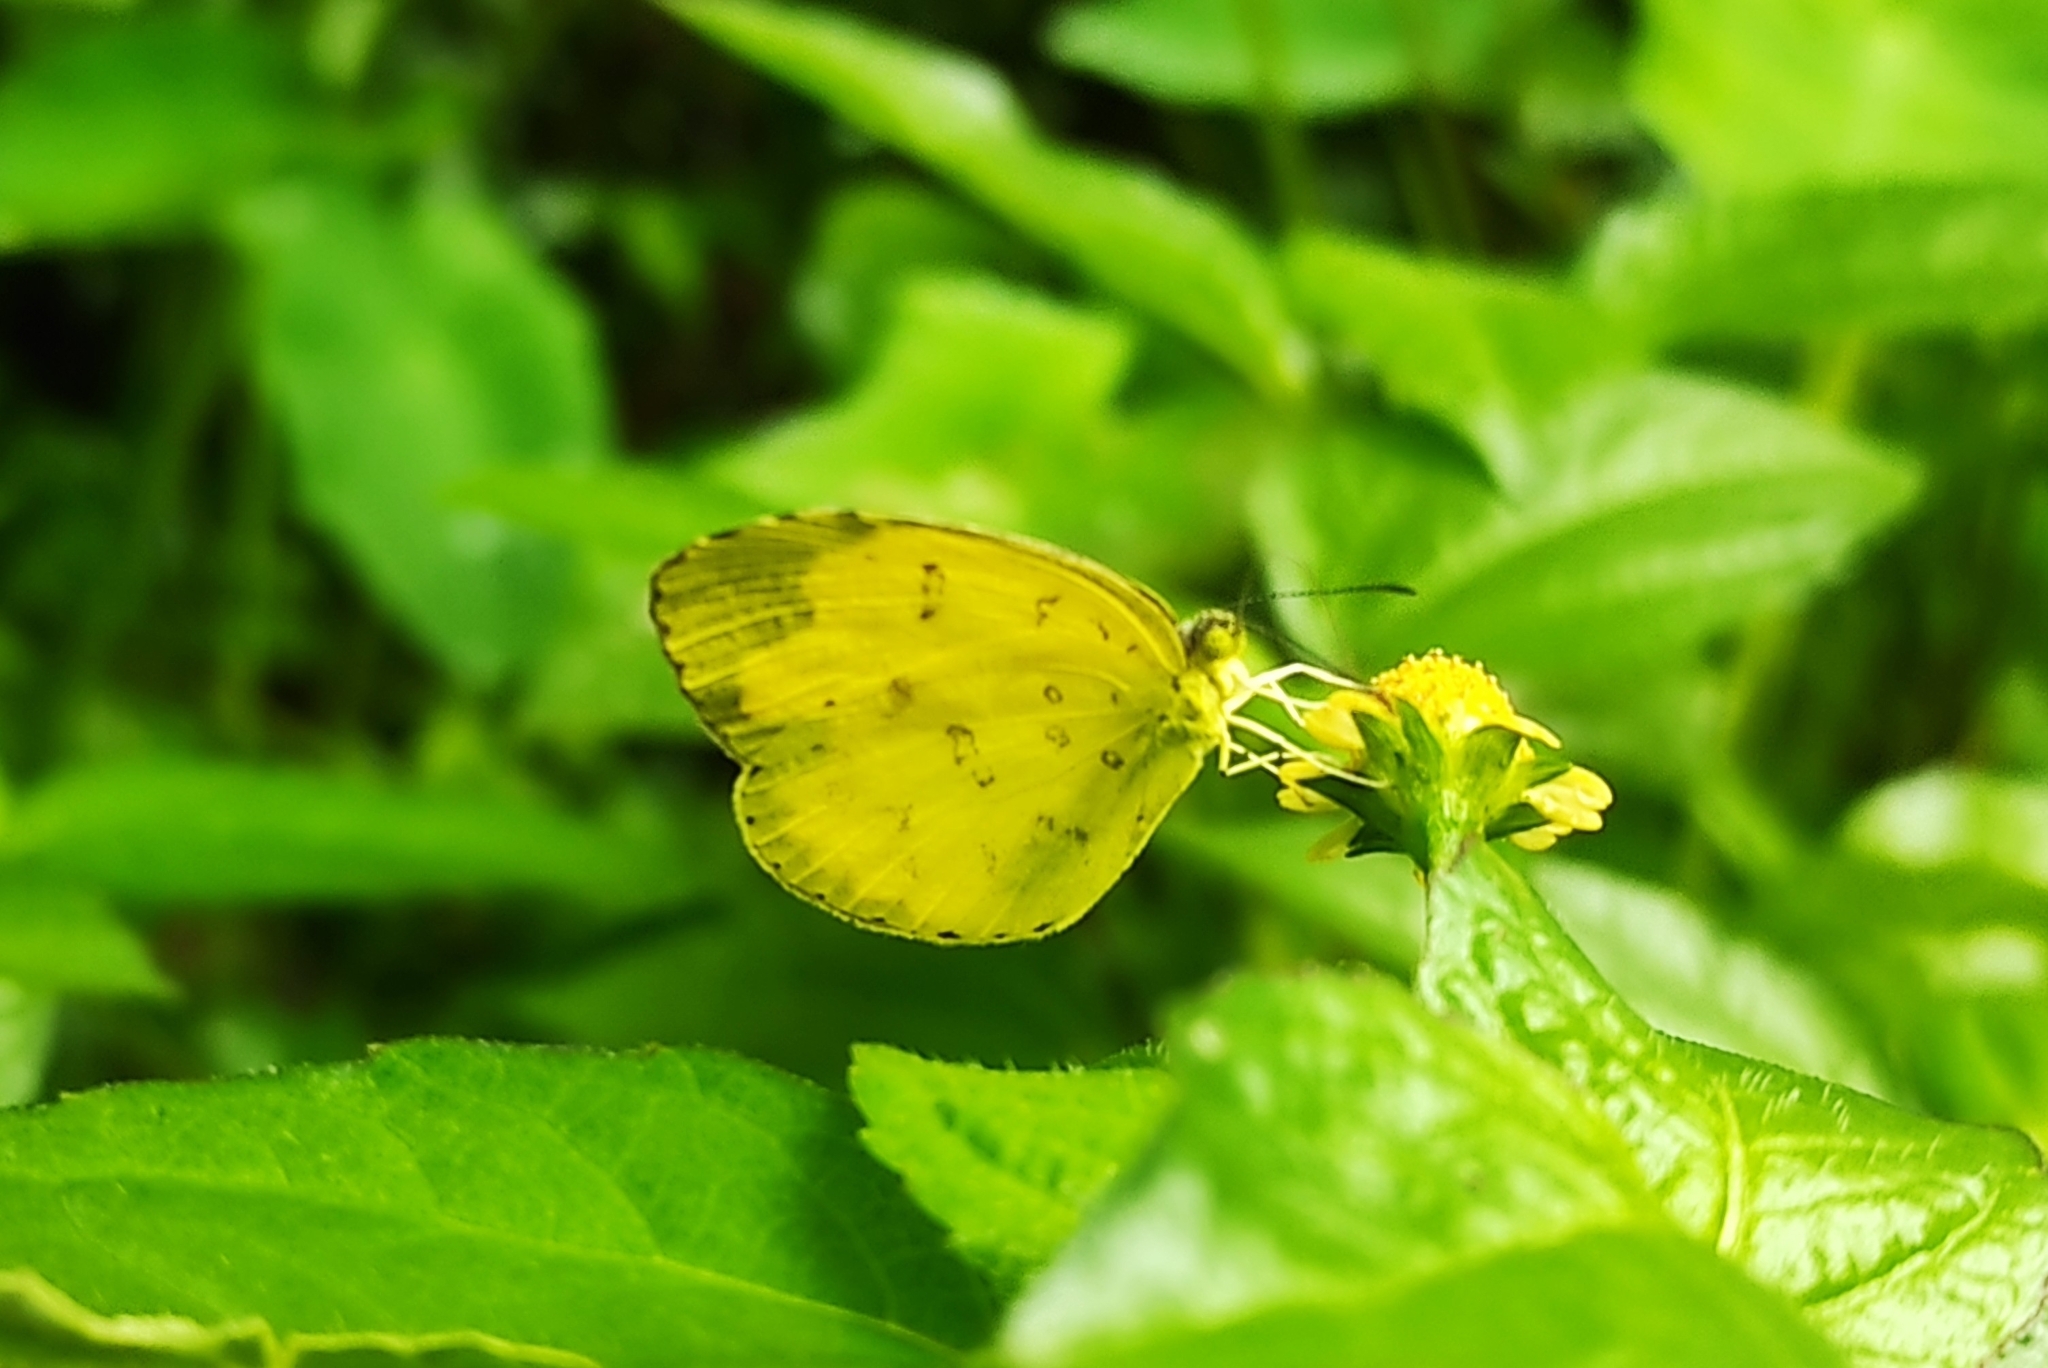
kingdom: Animalia
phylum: Arthropoda
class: Insecta
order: Lepidoptera
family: Pieridae
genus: Eurema
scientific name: Eurema blanda
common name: Three-spot grass yellow
